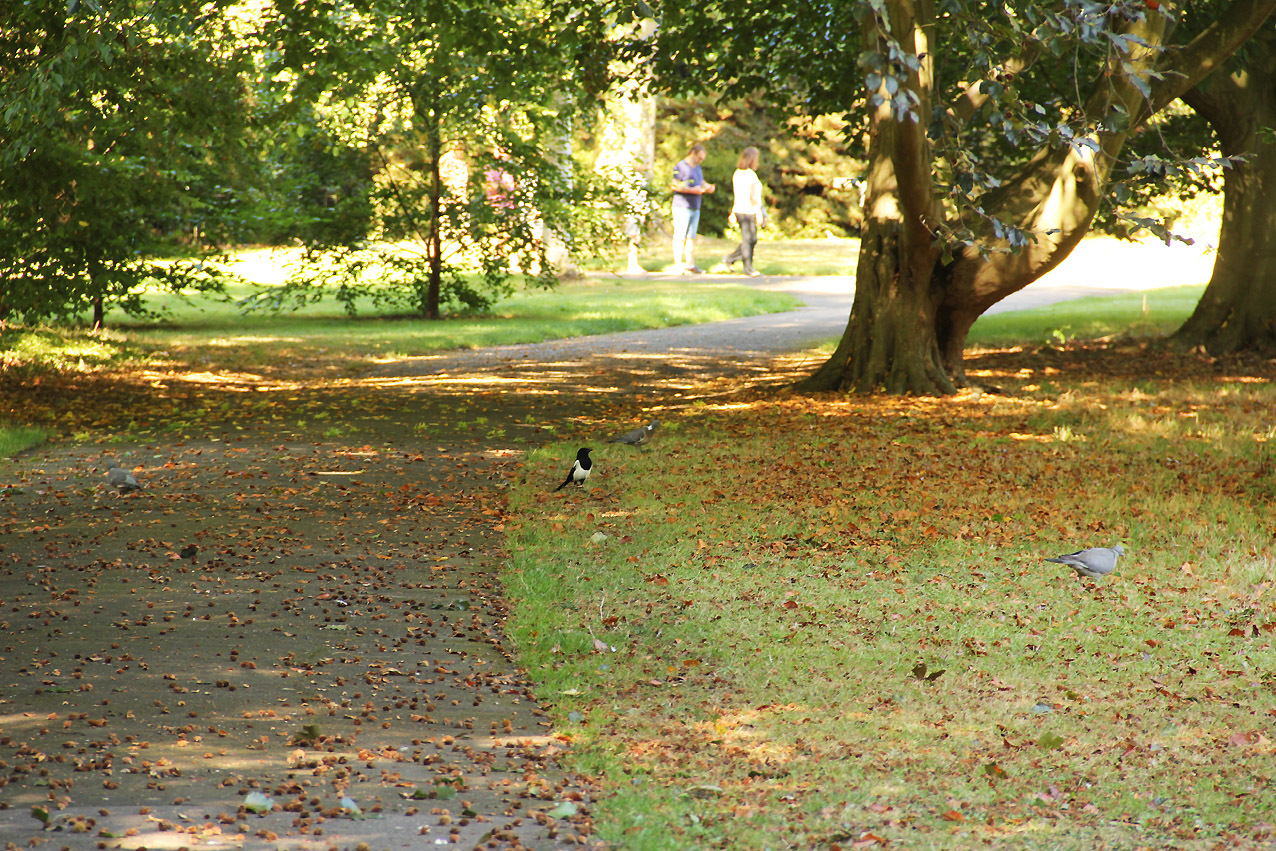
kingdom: Animalia
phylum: Chordata
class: Aves
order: Passeriformes
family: Corvidae
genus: Pica
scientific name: Pica pica
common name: Eurasian magpie
